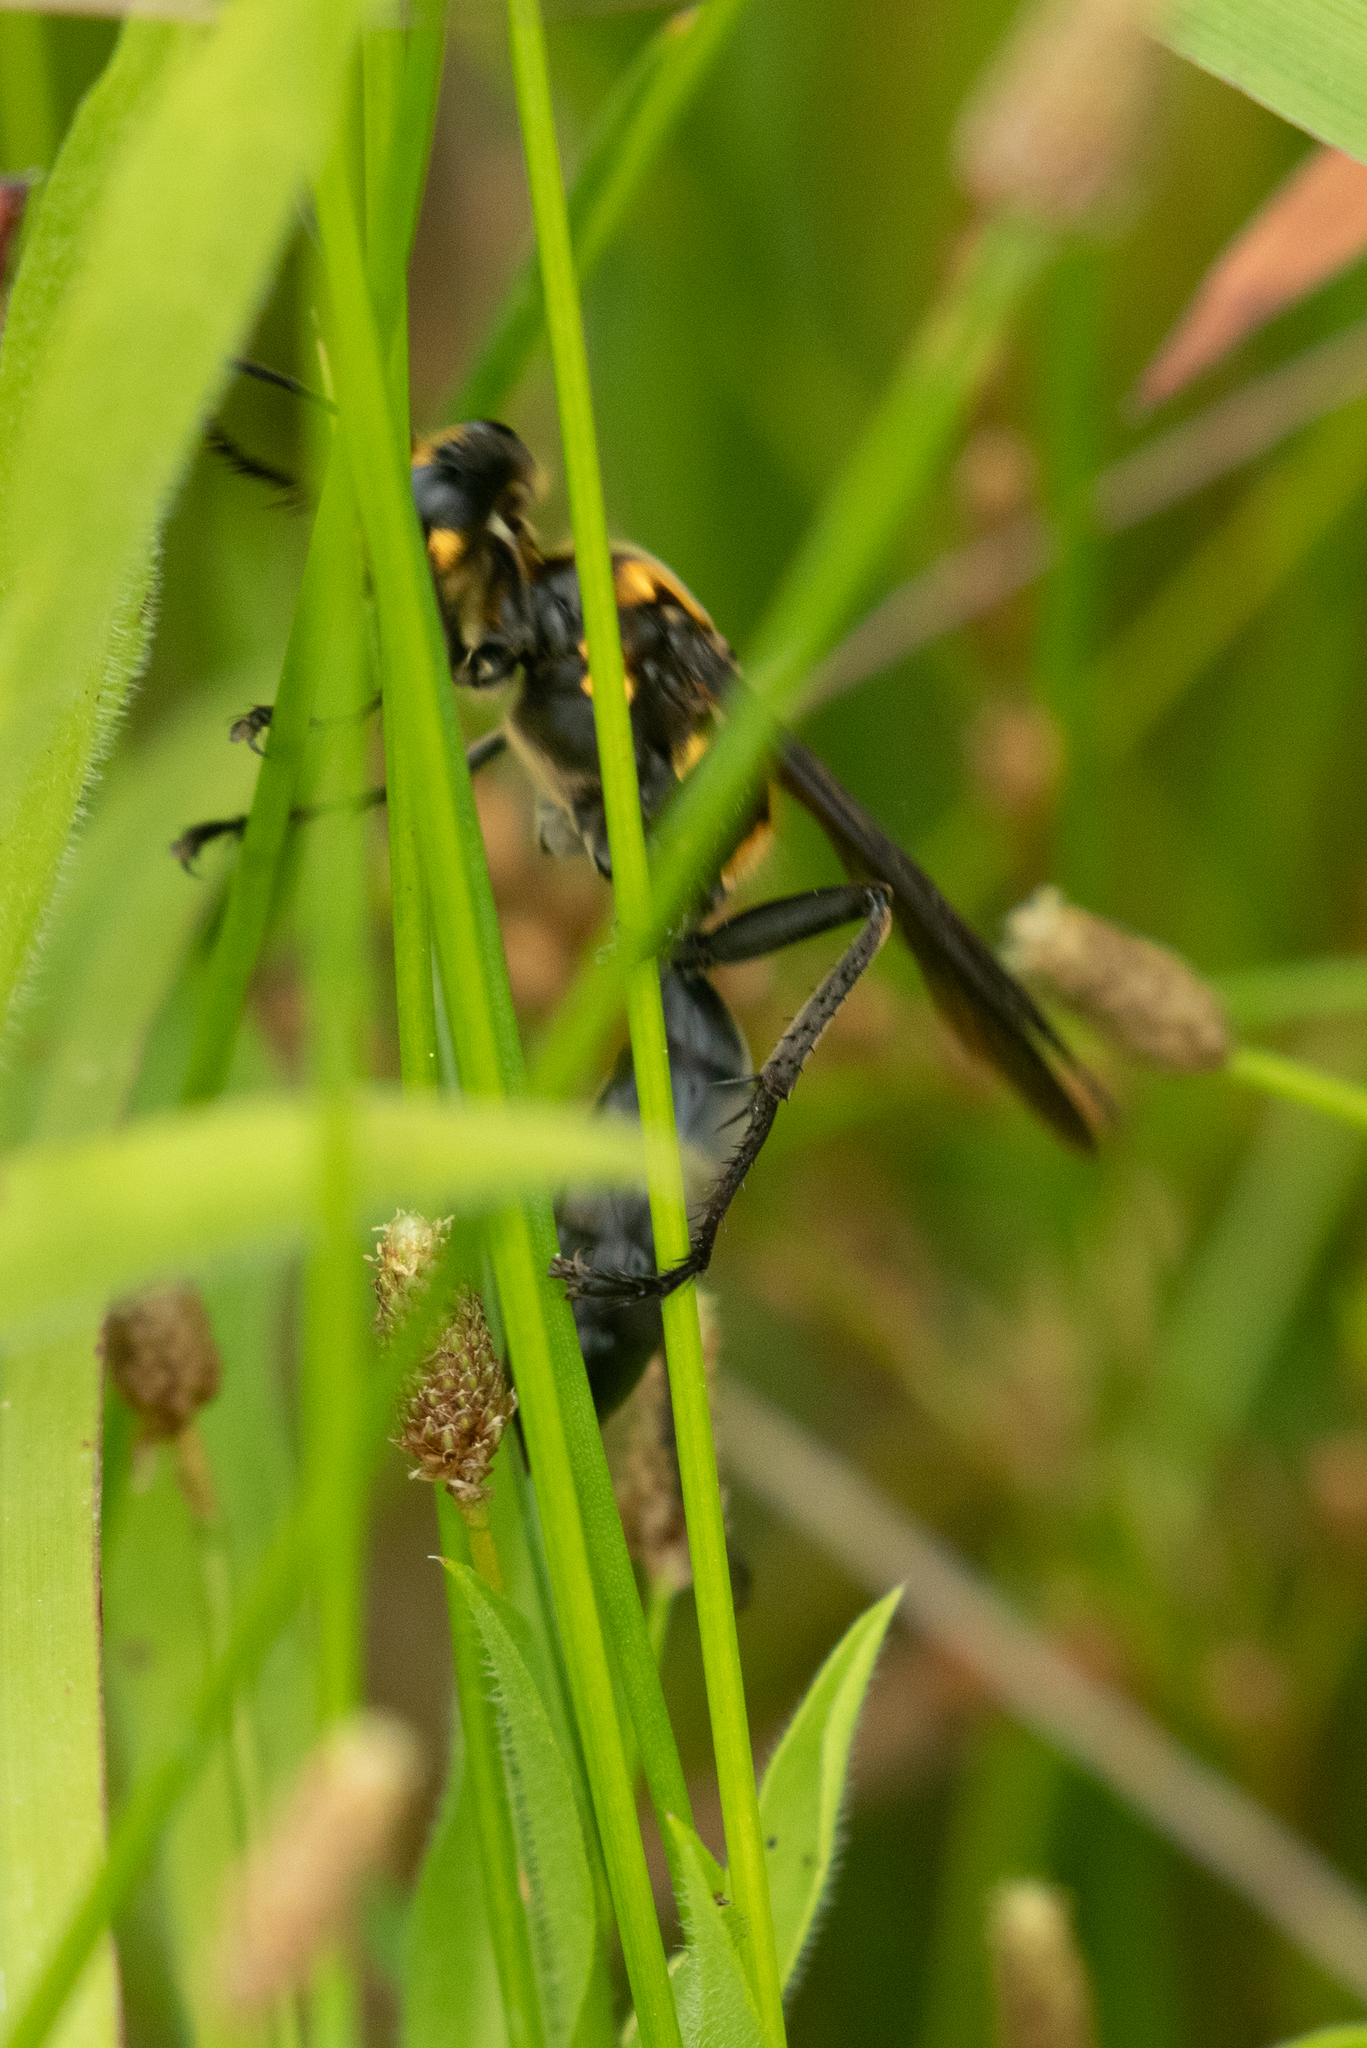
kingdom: Animalia
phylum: Arthropoda
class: Insecta
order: Hymenoptera
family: Sphecidae
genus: Sphex
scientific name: Sphex habenus
